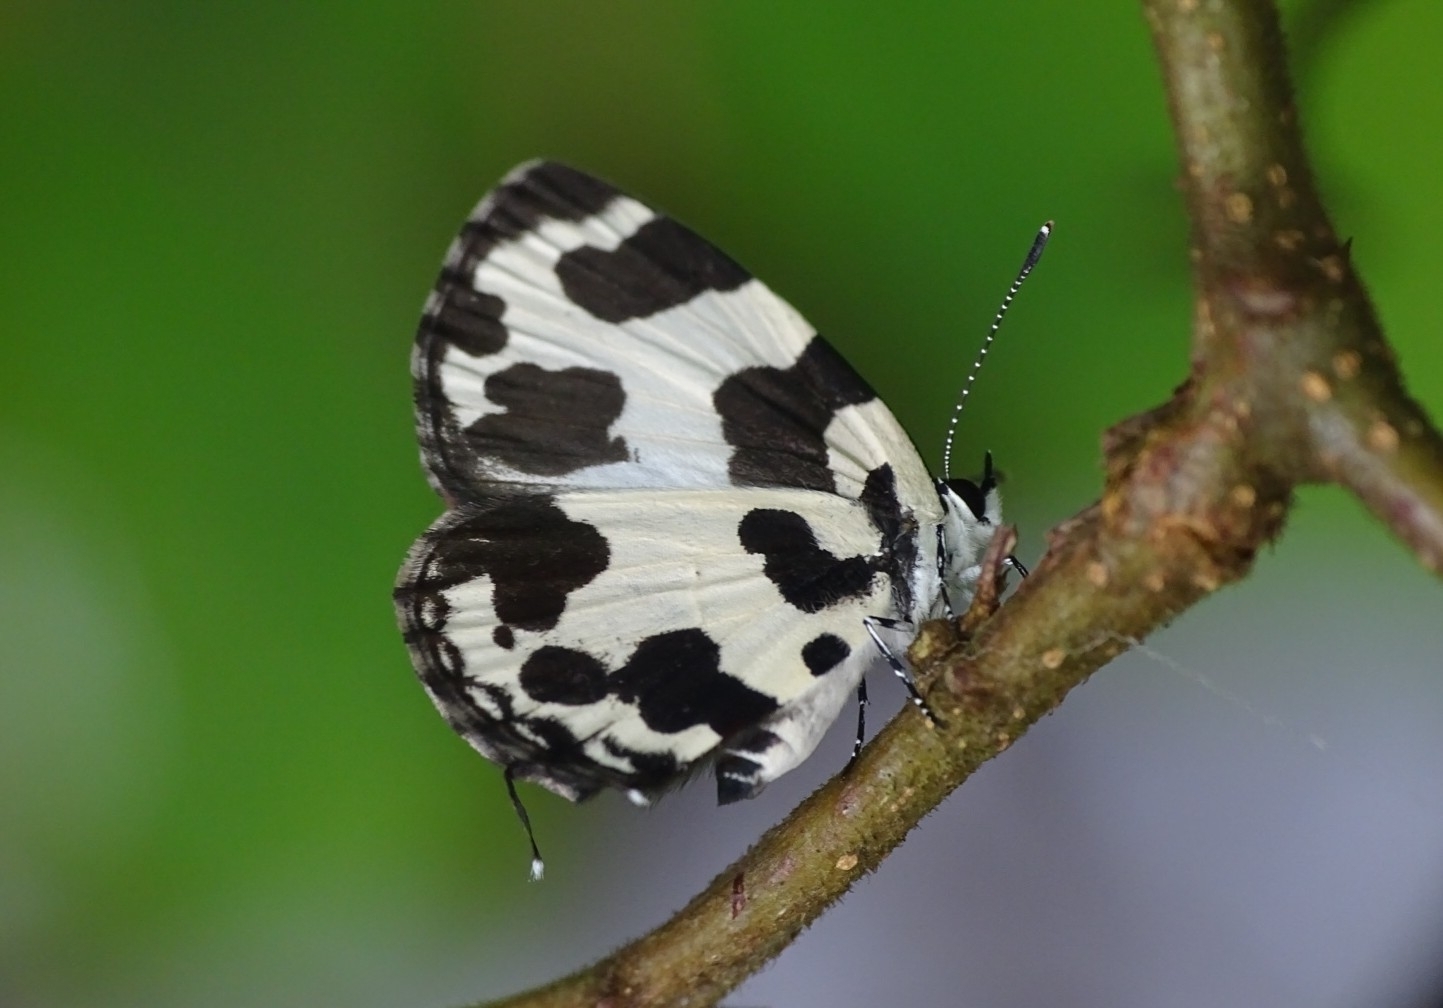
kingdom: Animalia
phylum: Arthropoda
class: Insecta
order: Lepidoptera
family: Lycaenidae
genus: Caleta
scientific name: Caleta decidia
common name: Angled pierrot
